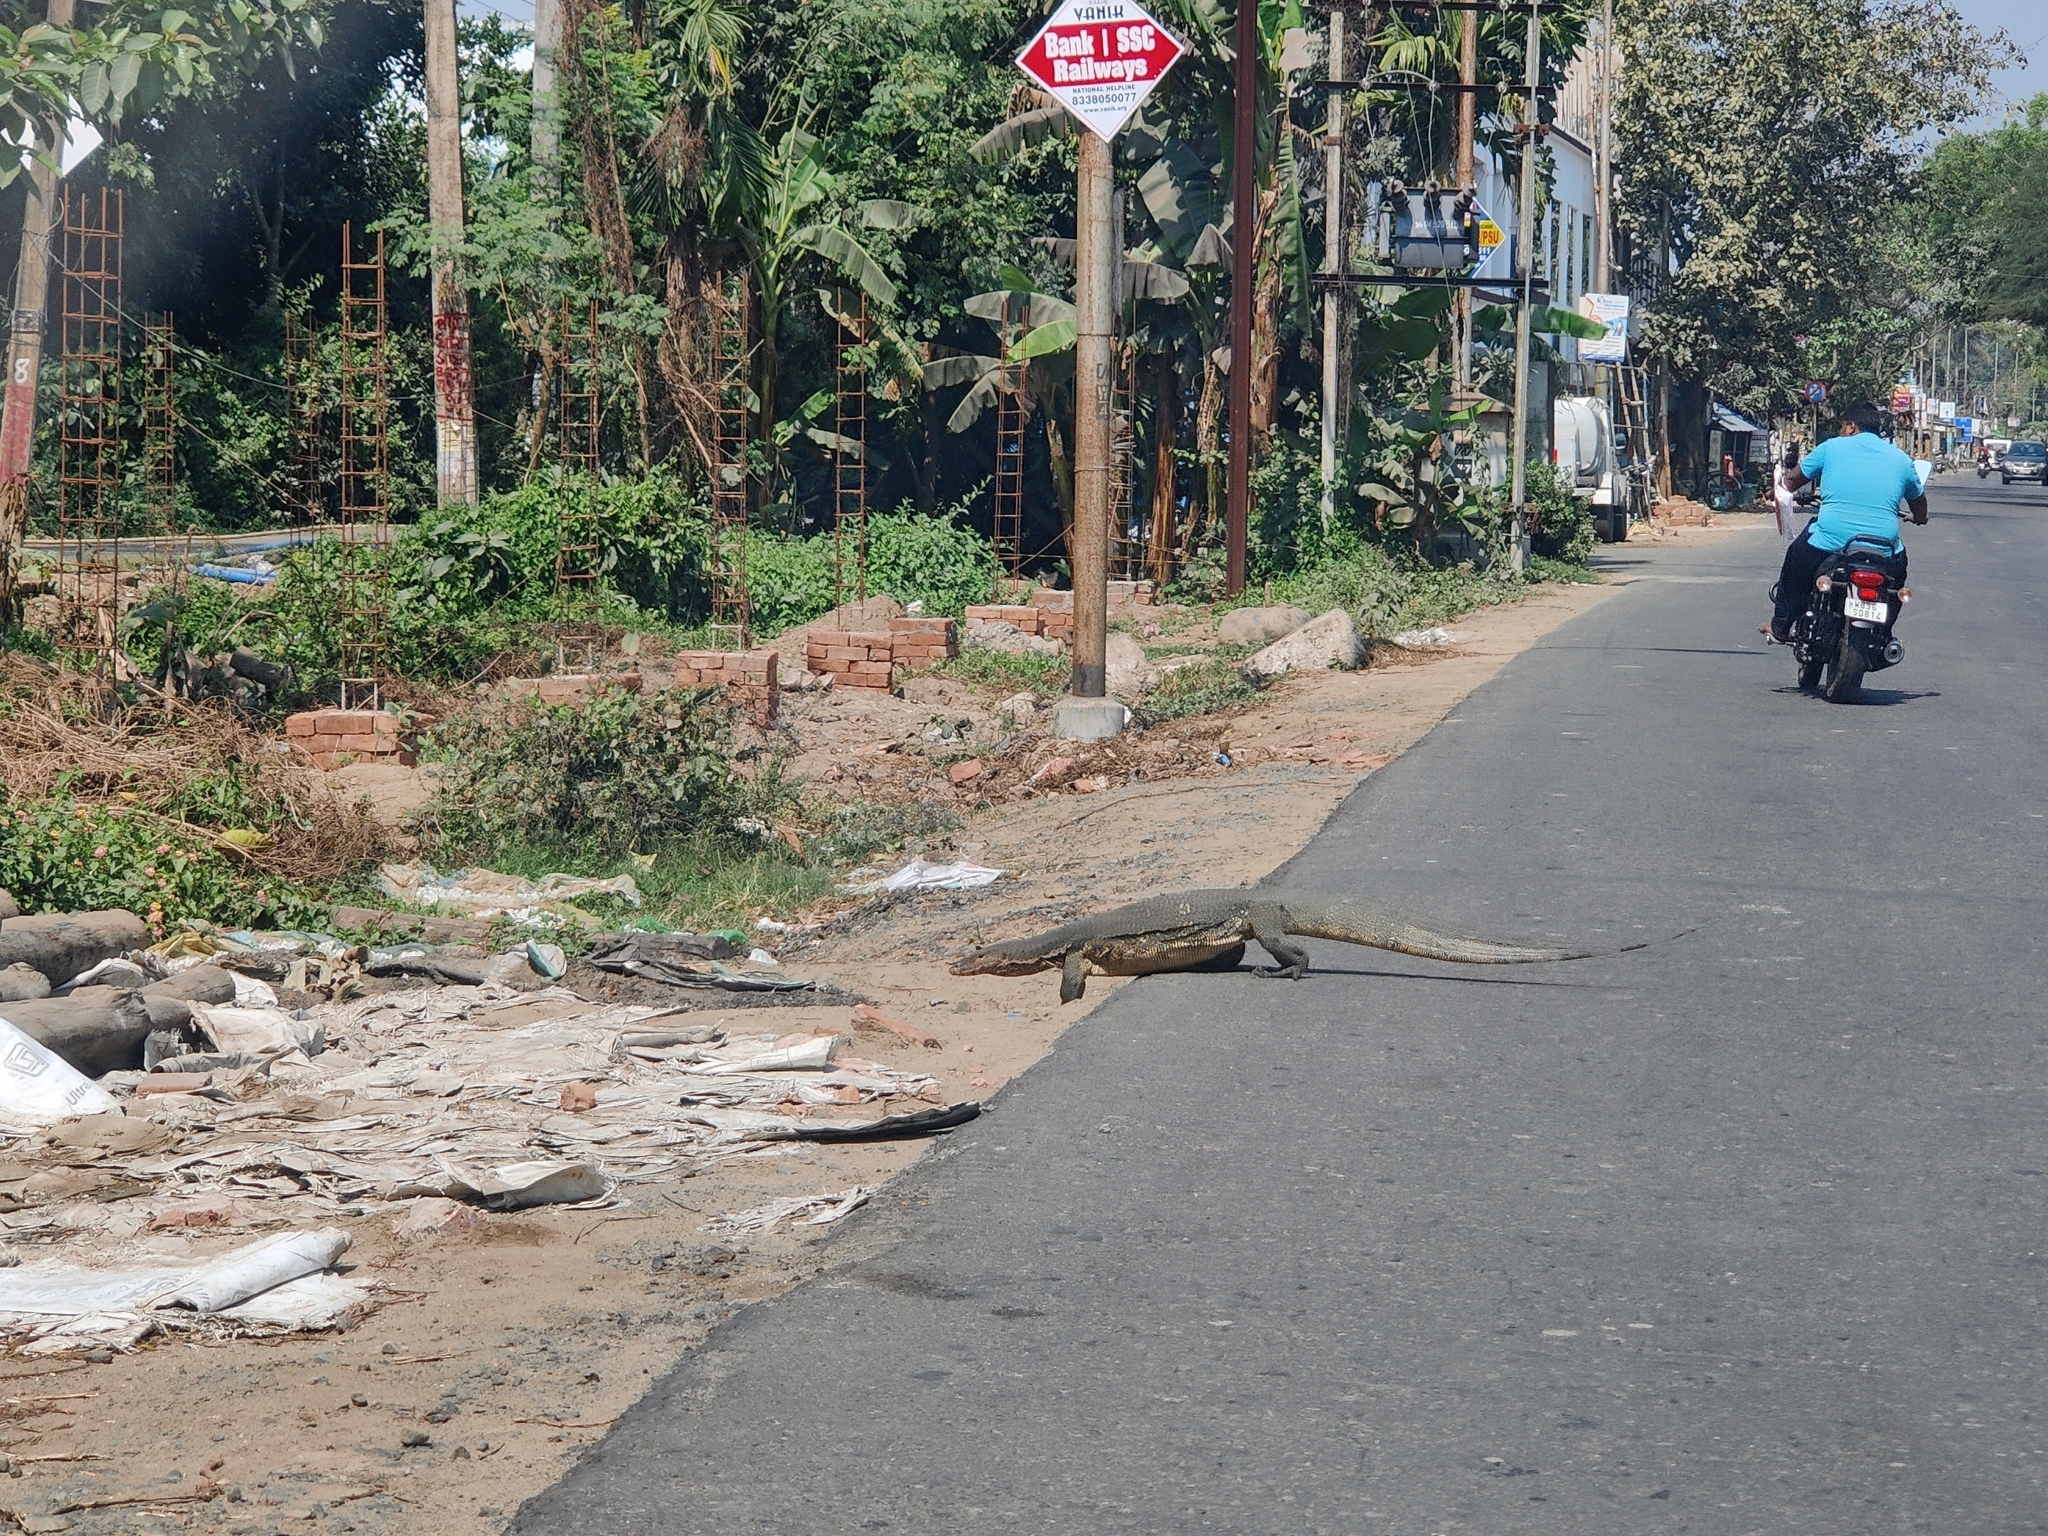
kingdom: Animalia
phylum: Chordata
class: Squamata
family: Varanidae
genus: Varanus
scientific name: Varanus salvator
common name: Common water monitor
